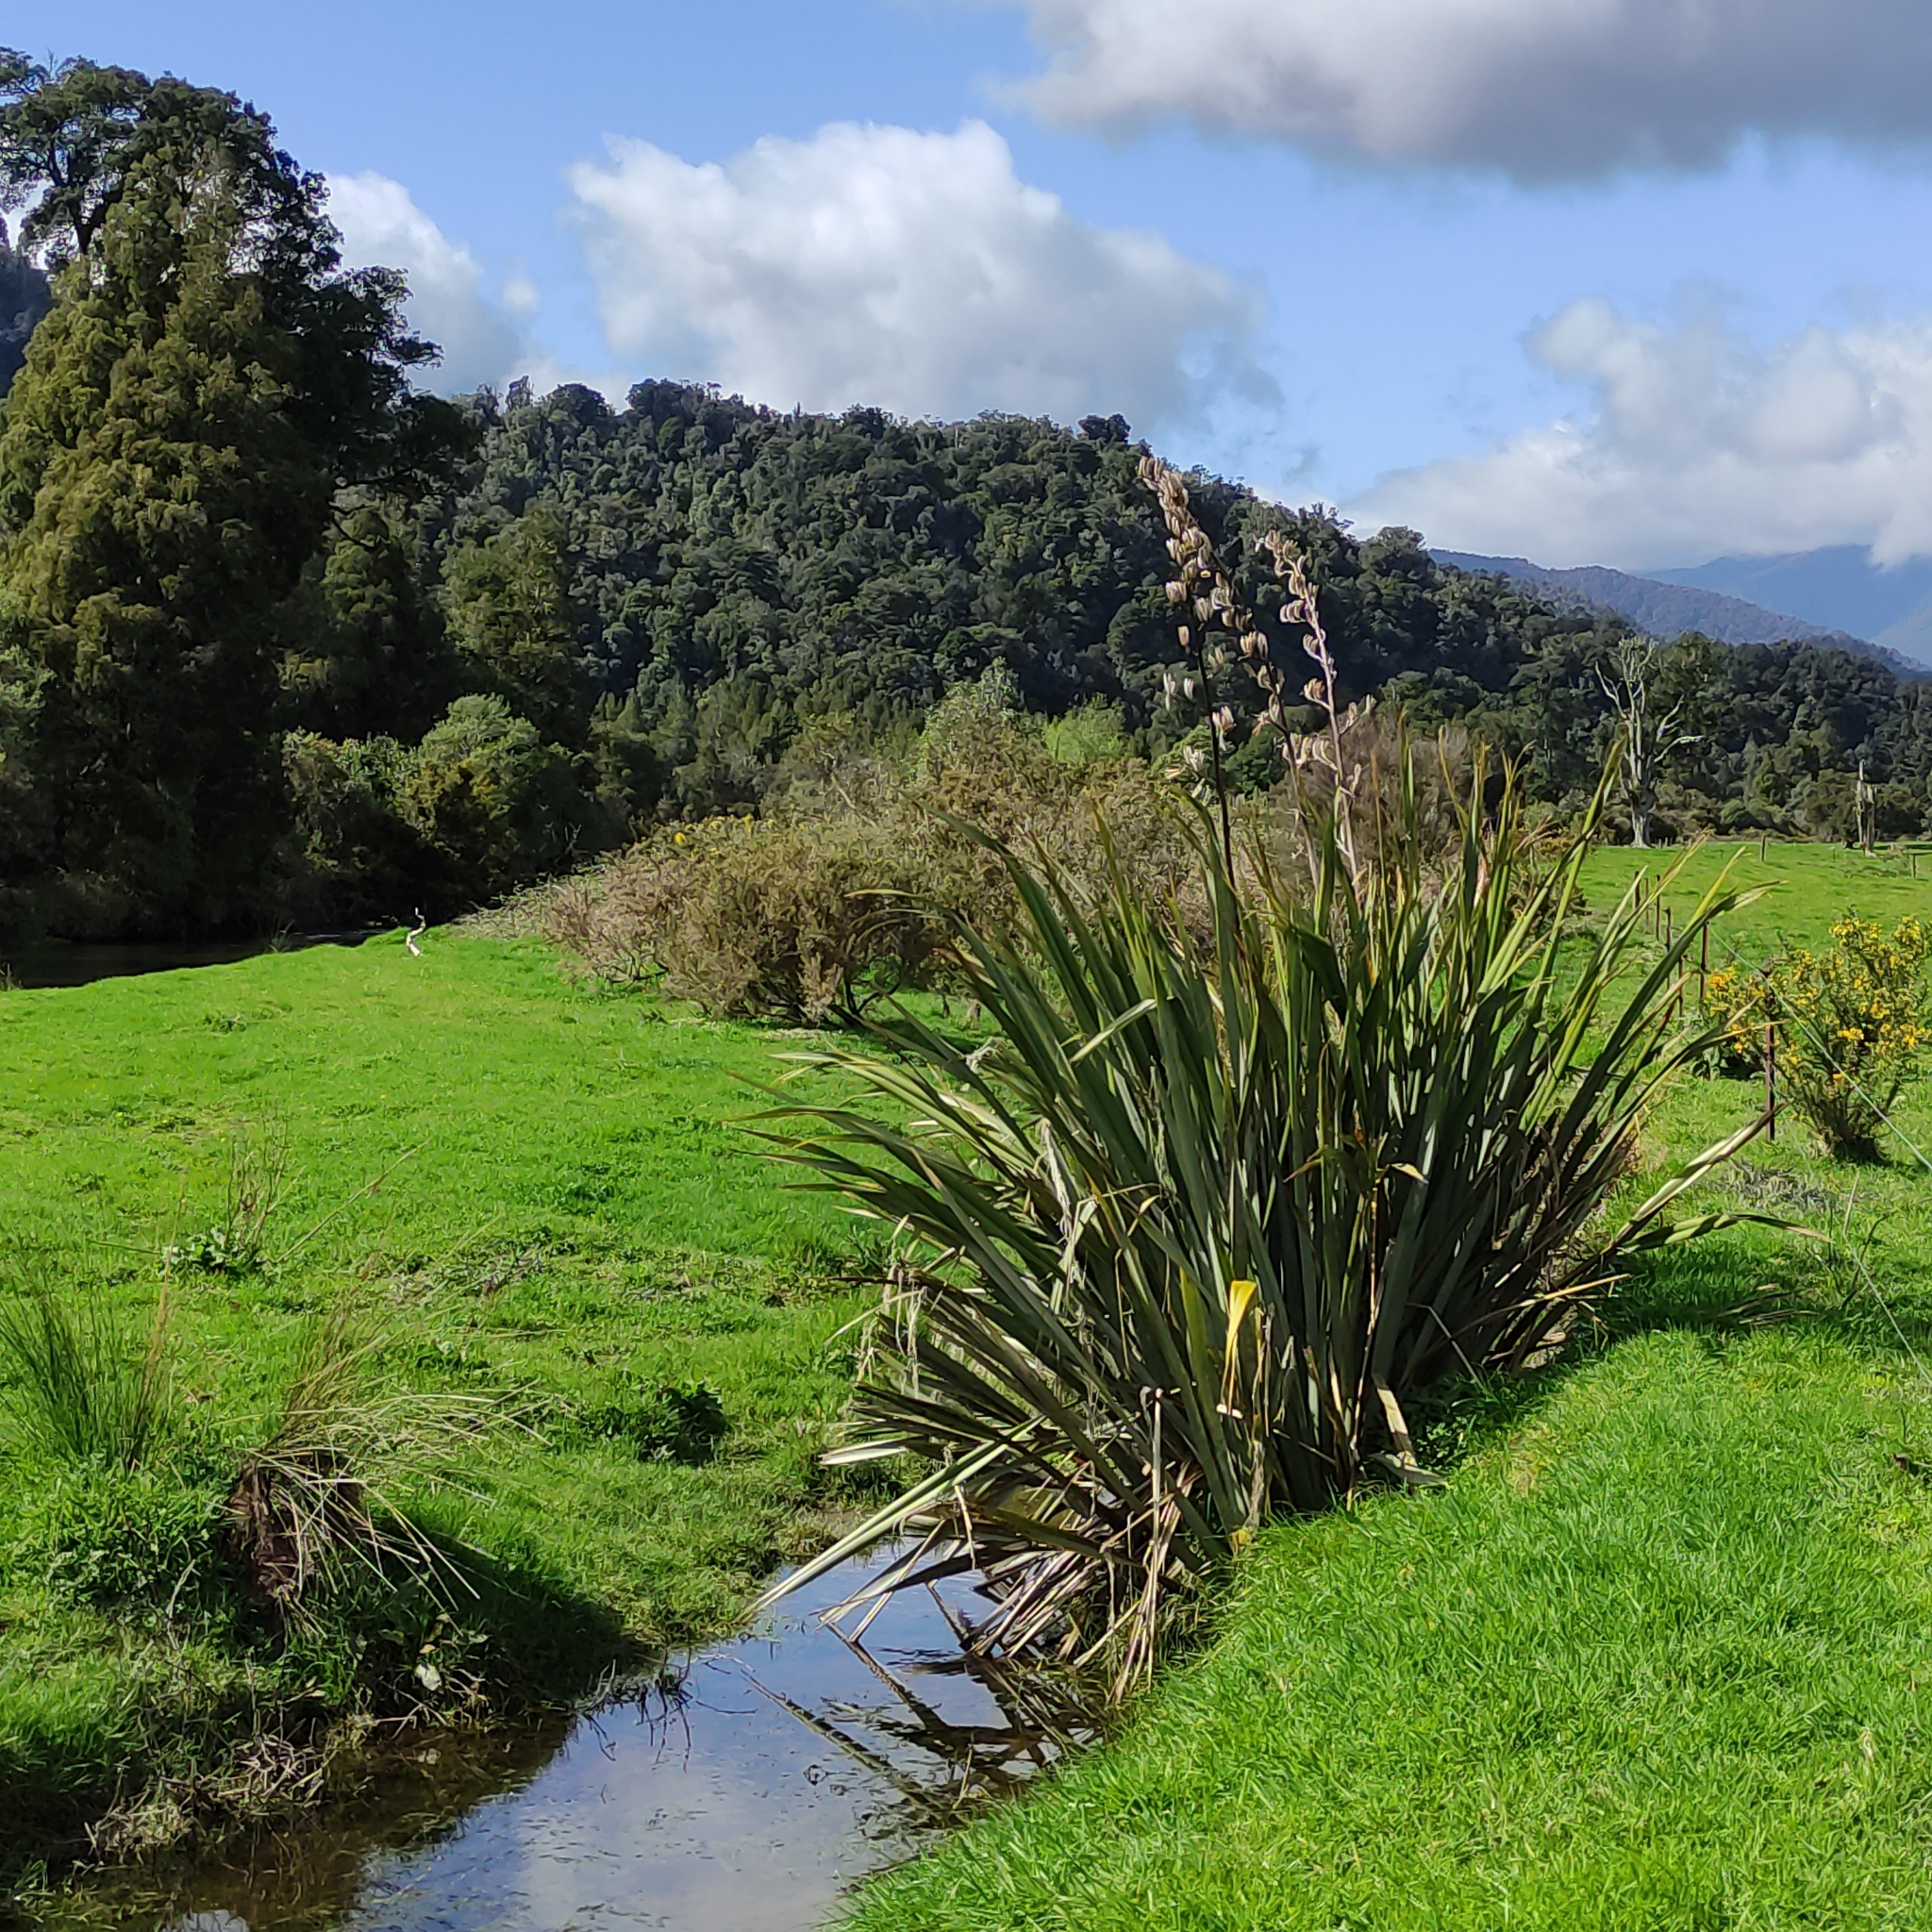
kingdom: Plantae
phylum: Tracheophyta
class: Liliopsida
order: Asparagales
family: Asphodelaceae
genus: Phormium
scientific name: Phormium tenax
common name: New zealand flax
